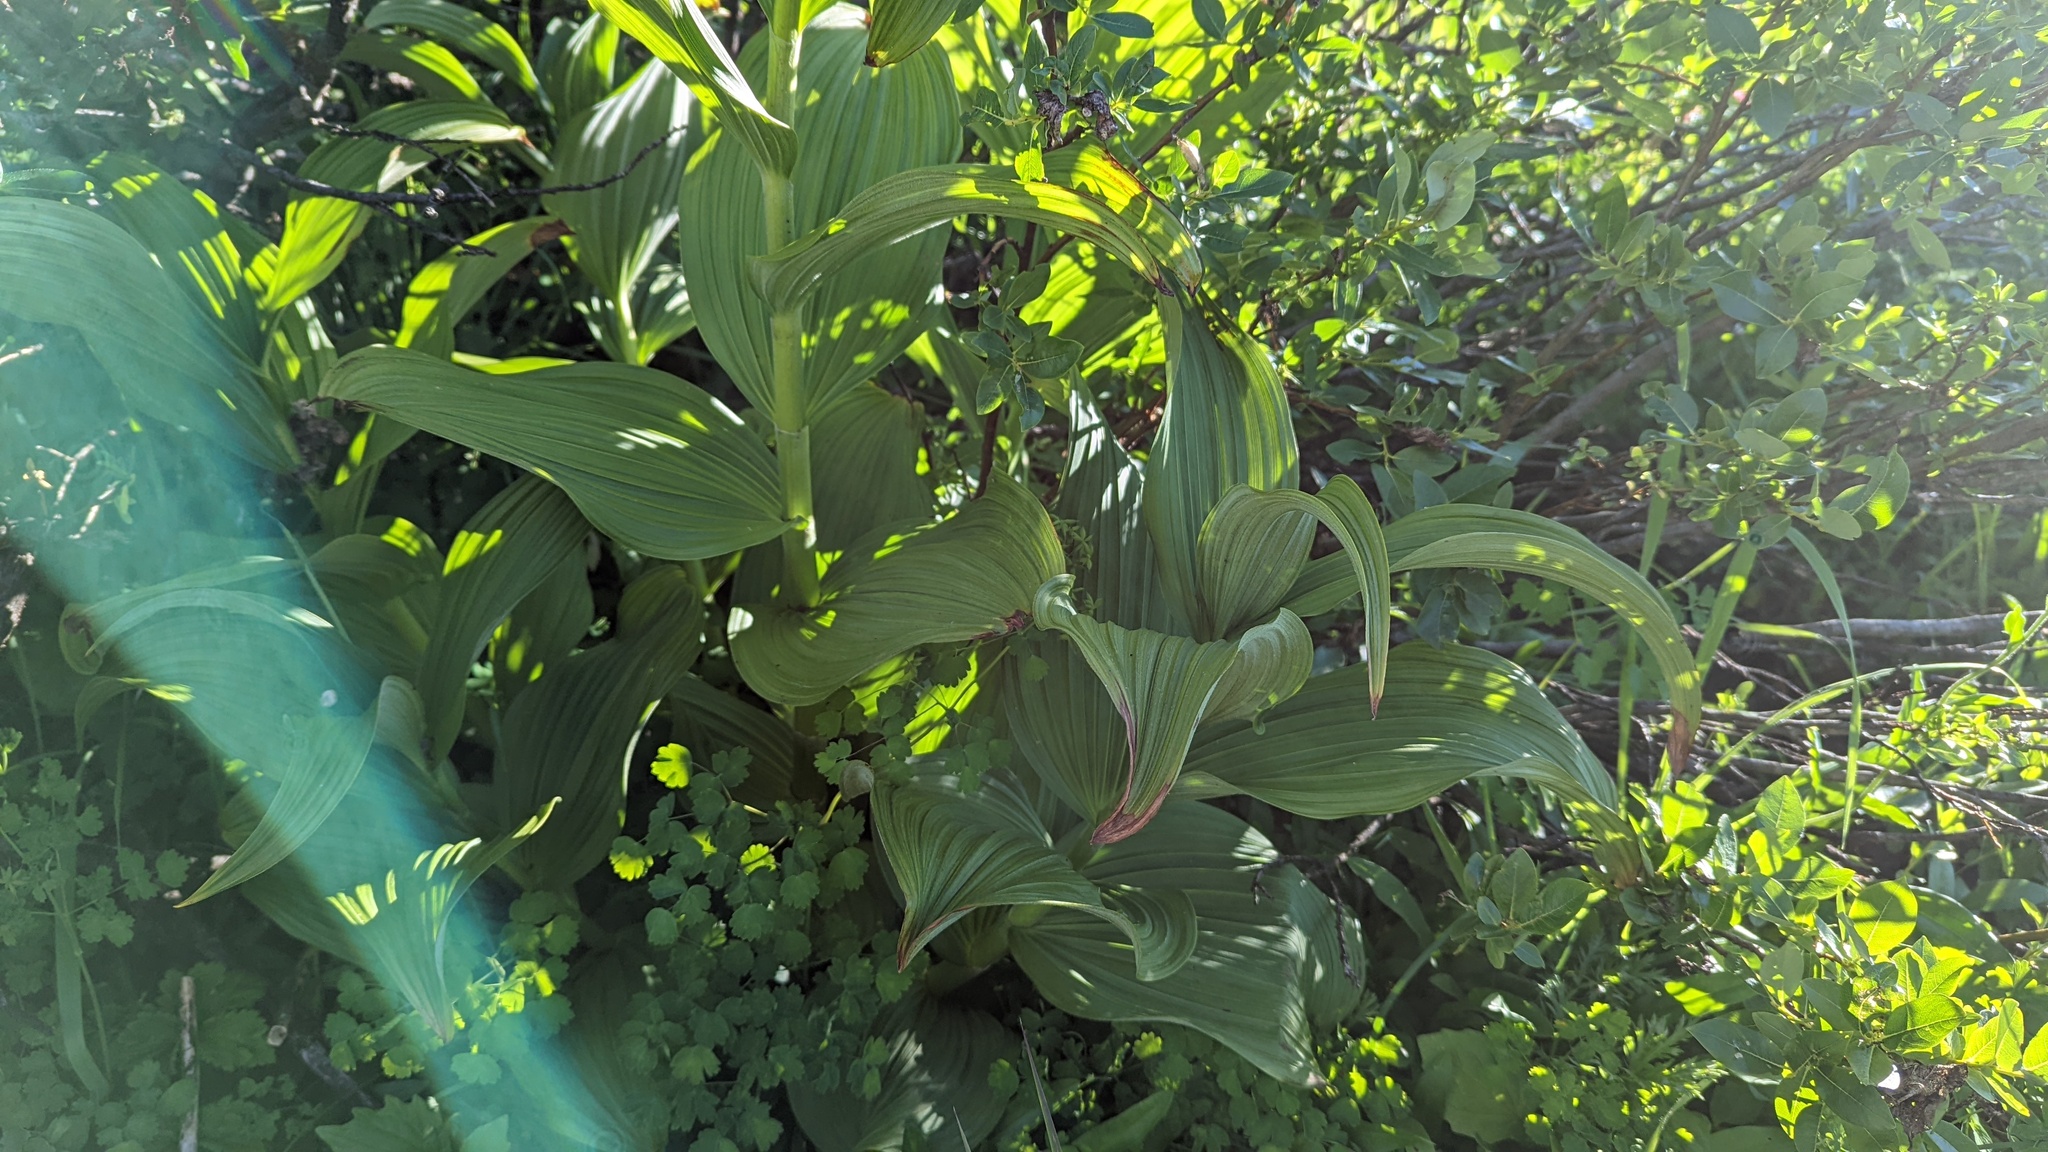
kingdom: Plantae
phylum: Tracheophyta
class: Liliopsida
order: Liliales
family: Melanthiaceae
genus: Veratrum
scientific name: Veratrum viride
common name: American false hellebore
